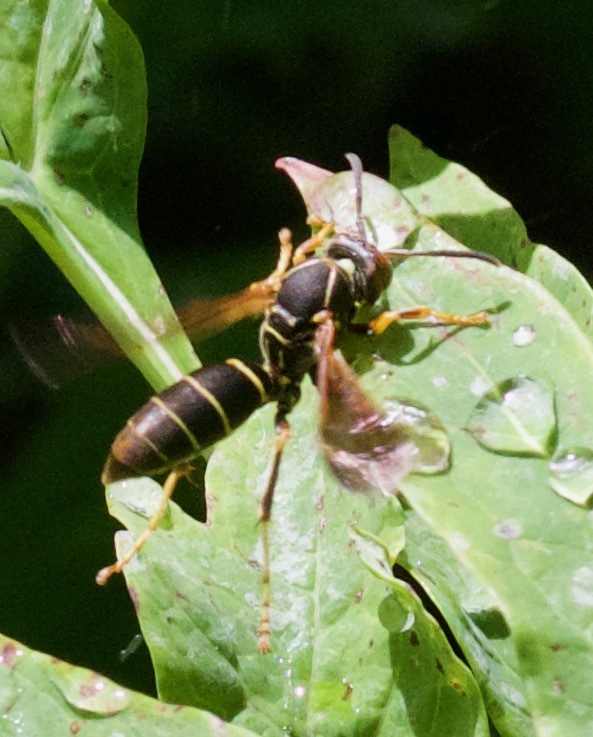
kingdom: Animalia
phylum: Arthropoda
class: Insecta
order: Hymenoptera
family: Eumenidae
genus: Polistes
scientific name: Polistes fuscatus
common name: Dark paper wasp
